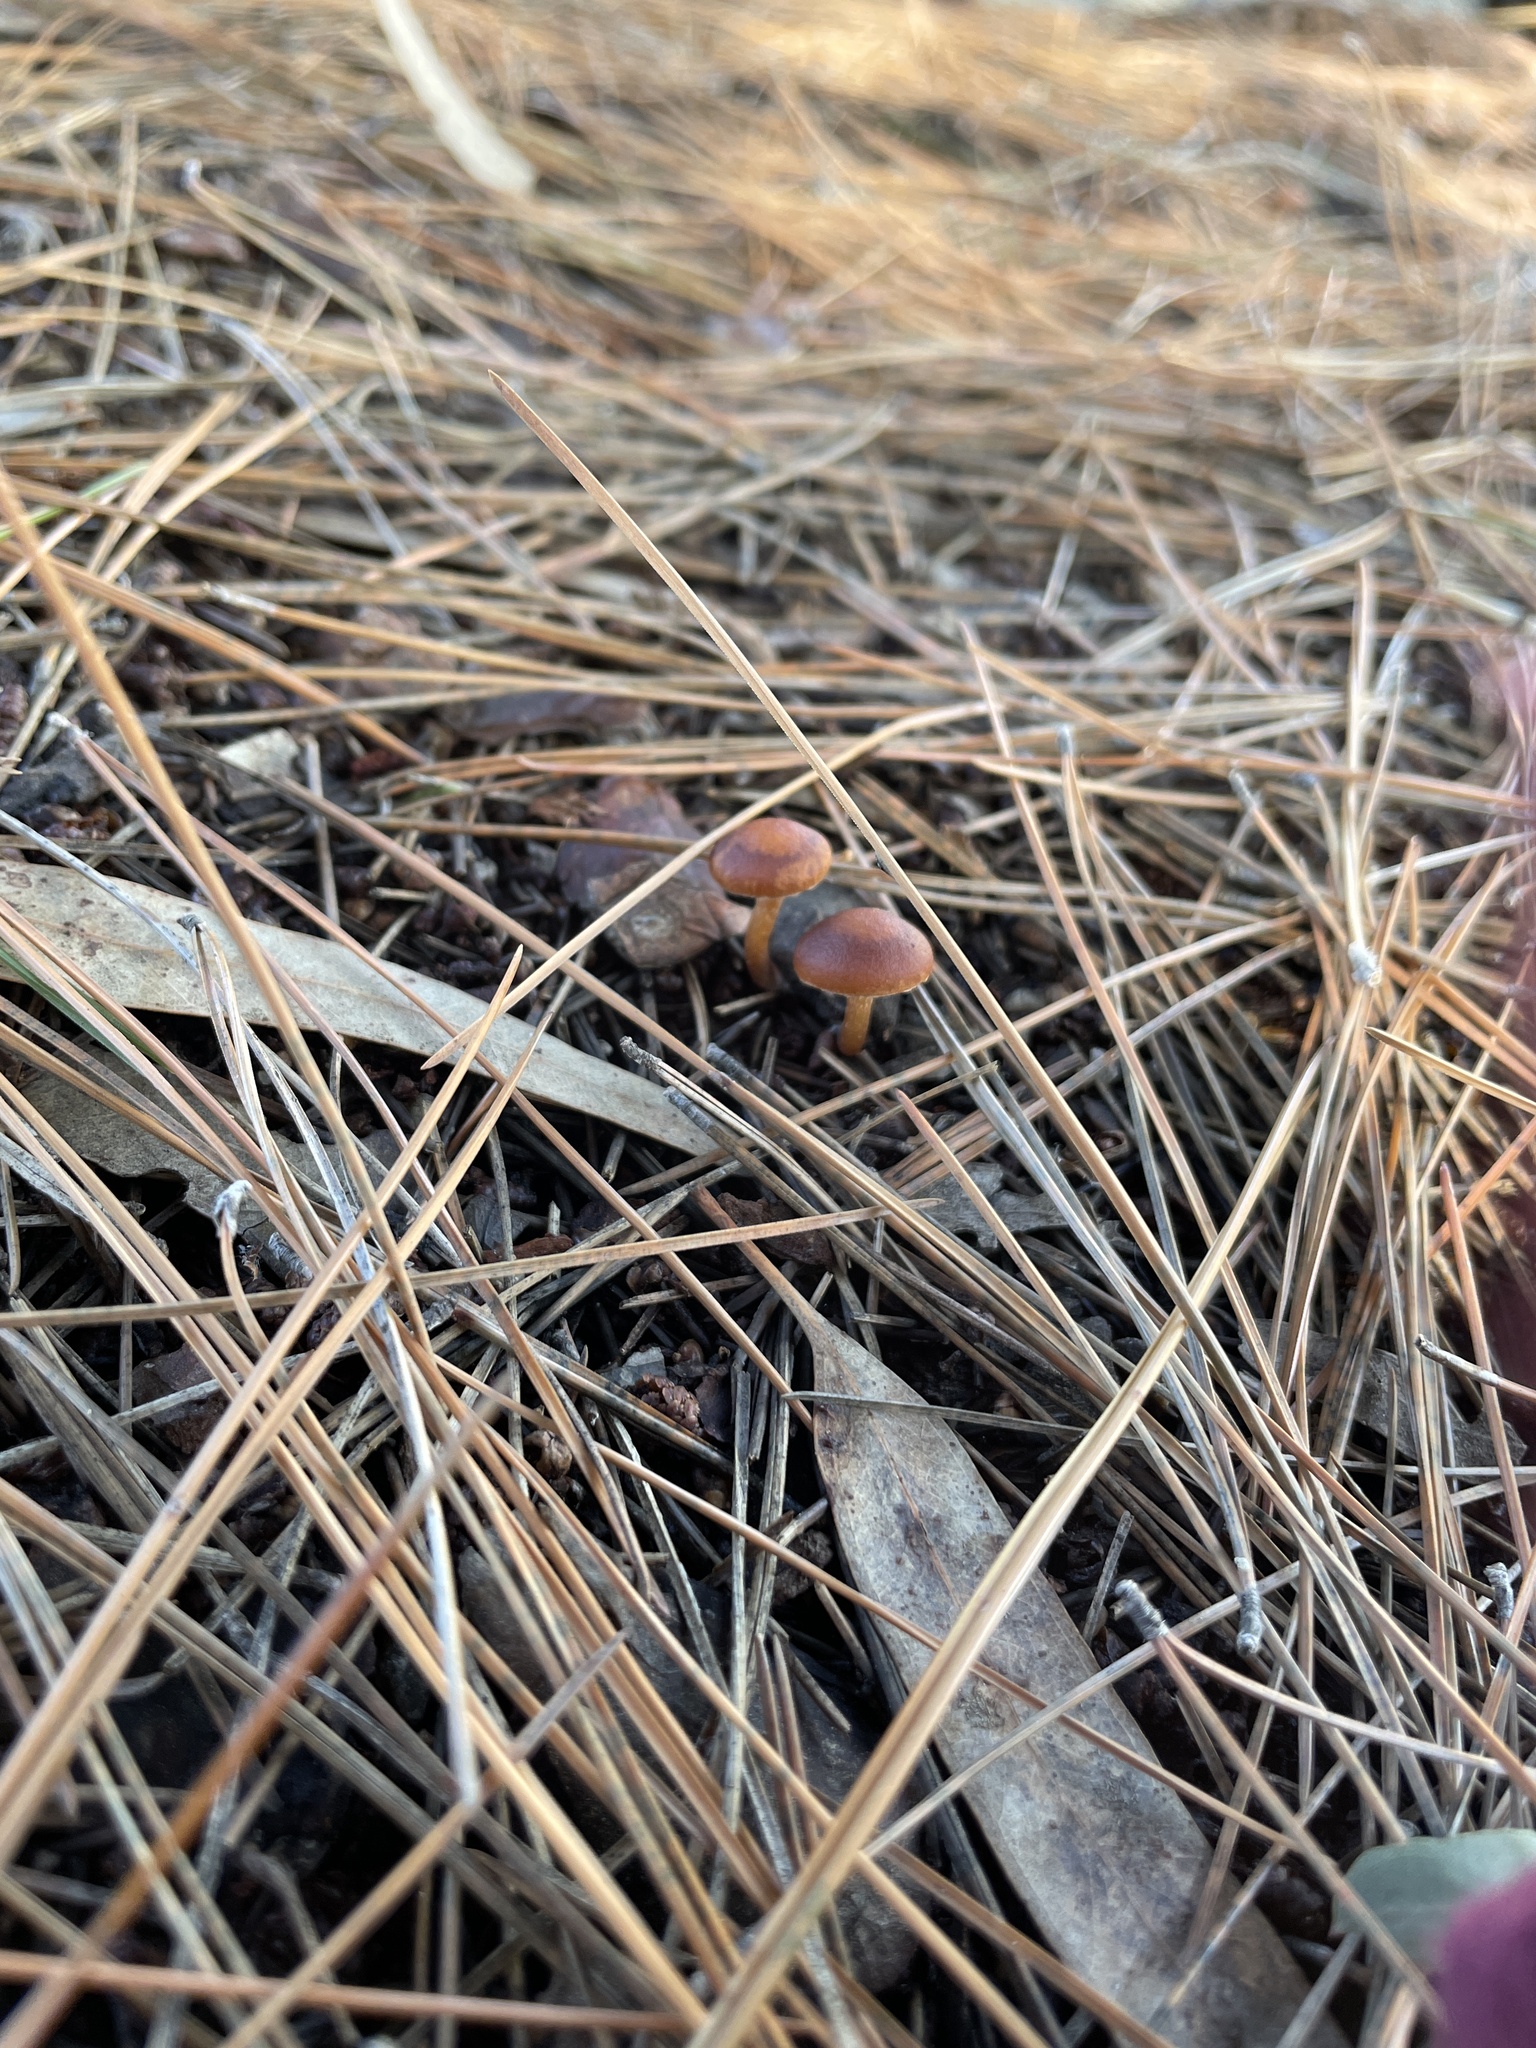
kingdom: Fungi
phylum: Basidiomycota
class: Agaricomycetes
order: Agaricales
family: Tubariaceae
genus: Tubaria
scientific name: Tubaria furfuracea
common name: Scurfy twiglet
